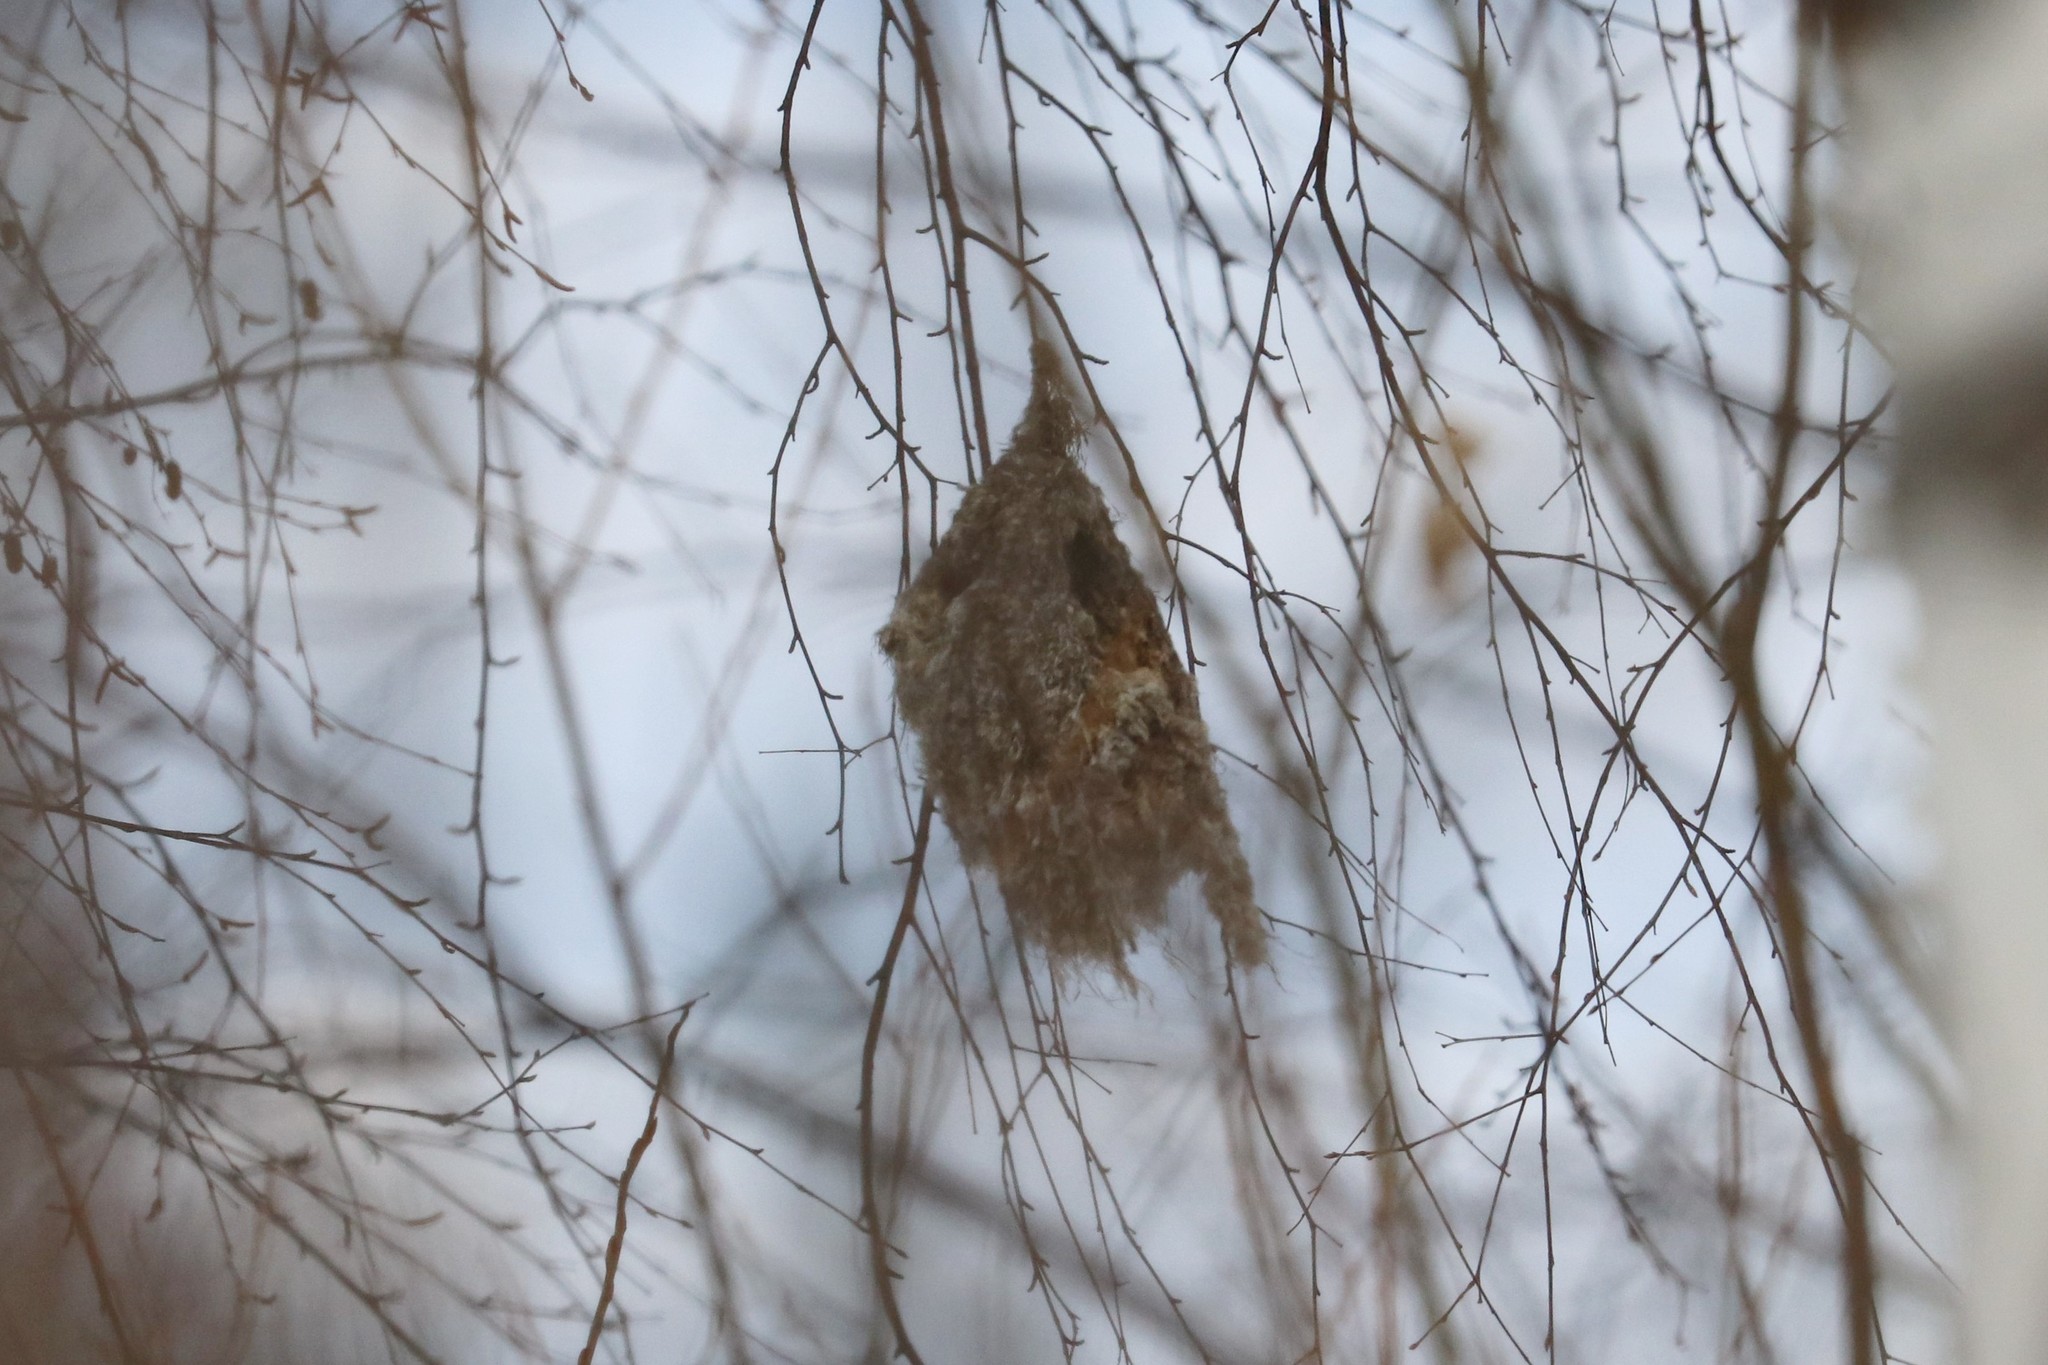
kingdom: Animalia
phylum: Chordata
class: Aves
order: Passeriformes
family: Remizidae
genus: Remiz
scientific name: Remiz pendulinus
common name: Eurasian penduline tit
